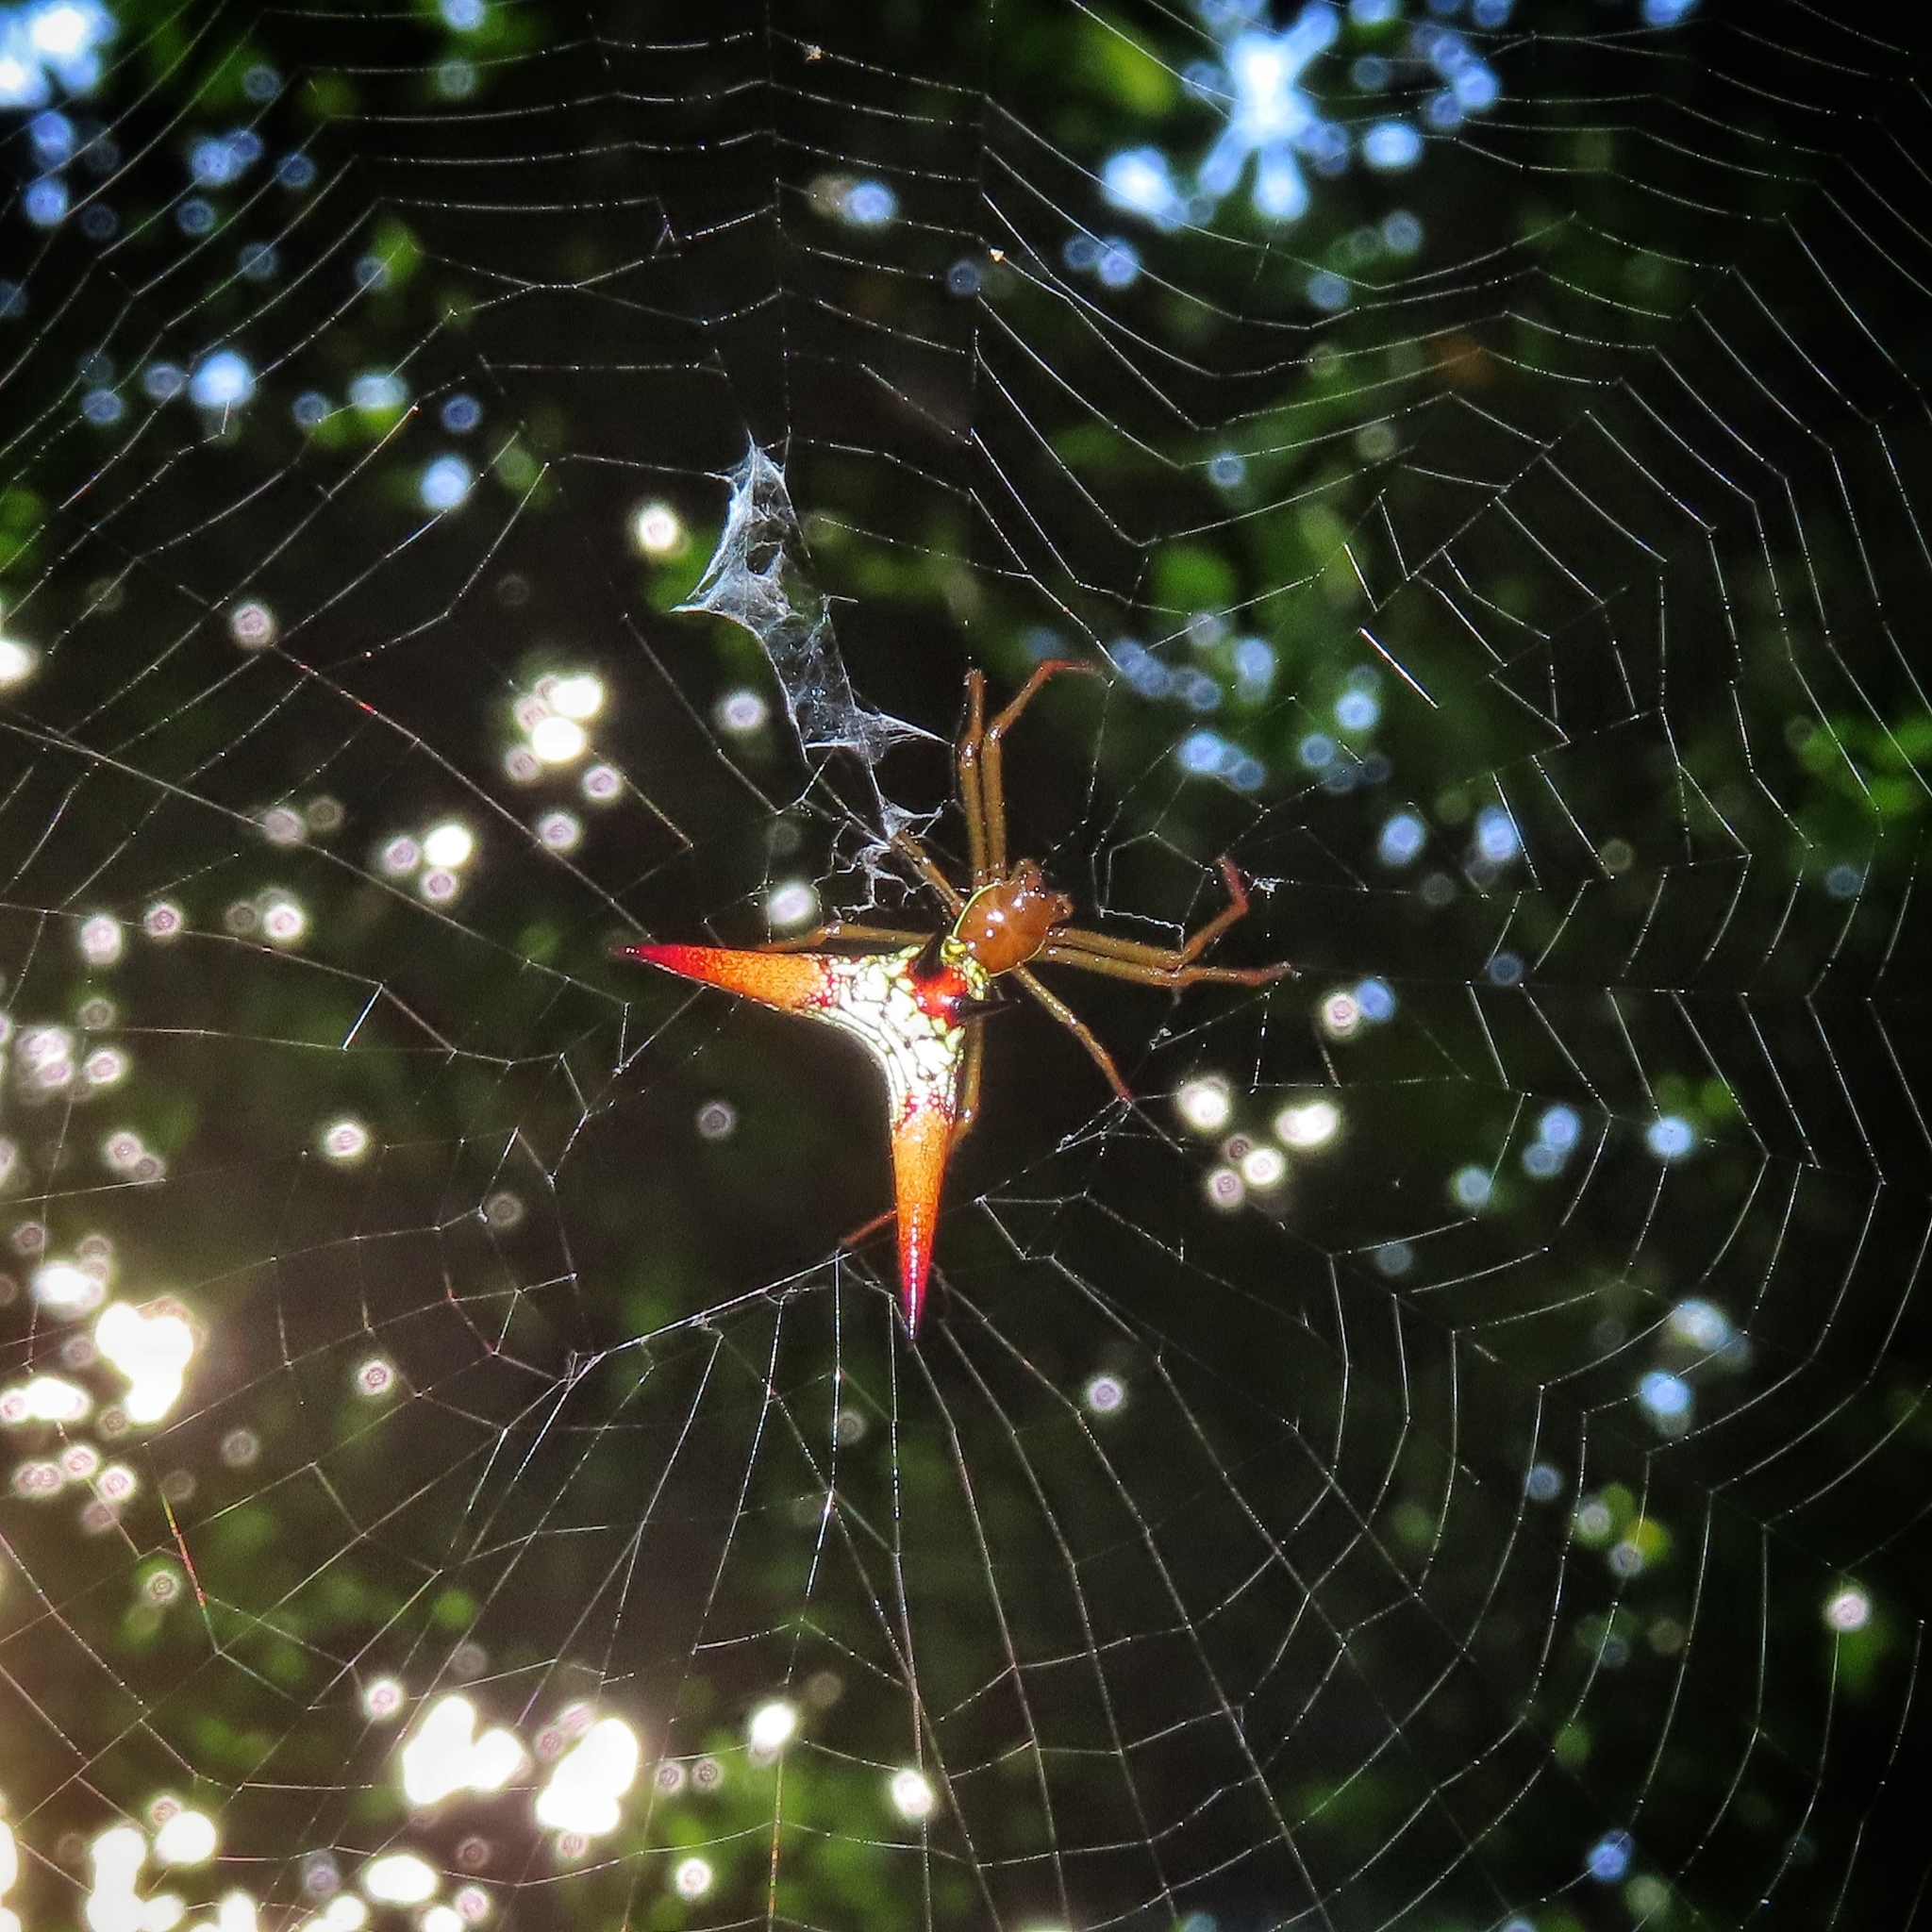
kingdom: Animalia
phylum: Arthropoda
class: Arachnida
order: Araneae
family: Araneidae
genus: Micrathena
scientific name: Micrathena militaris
